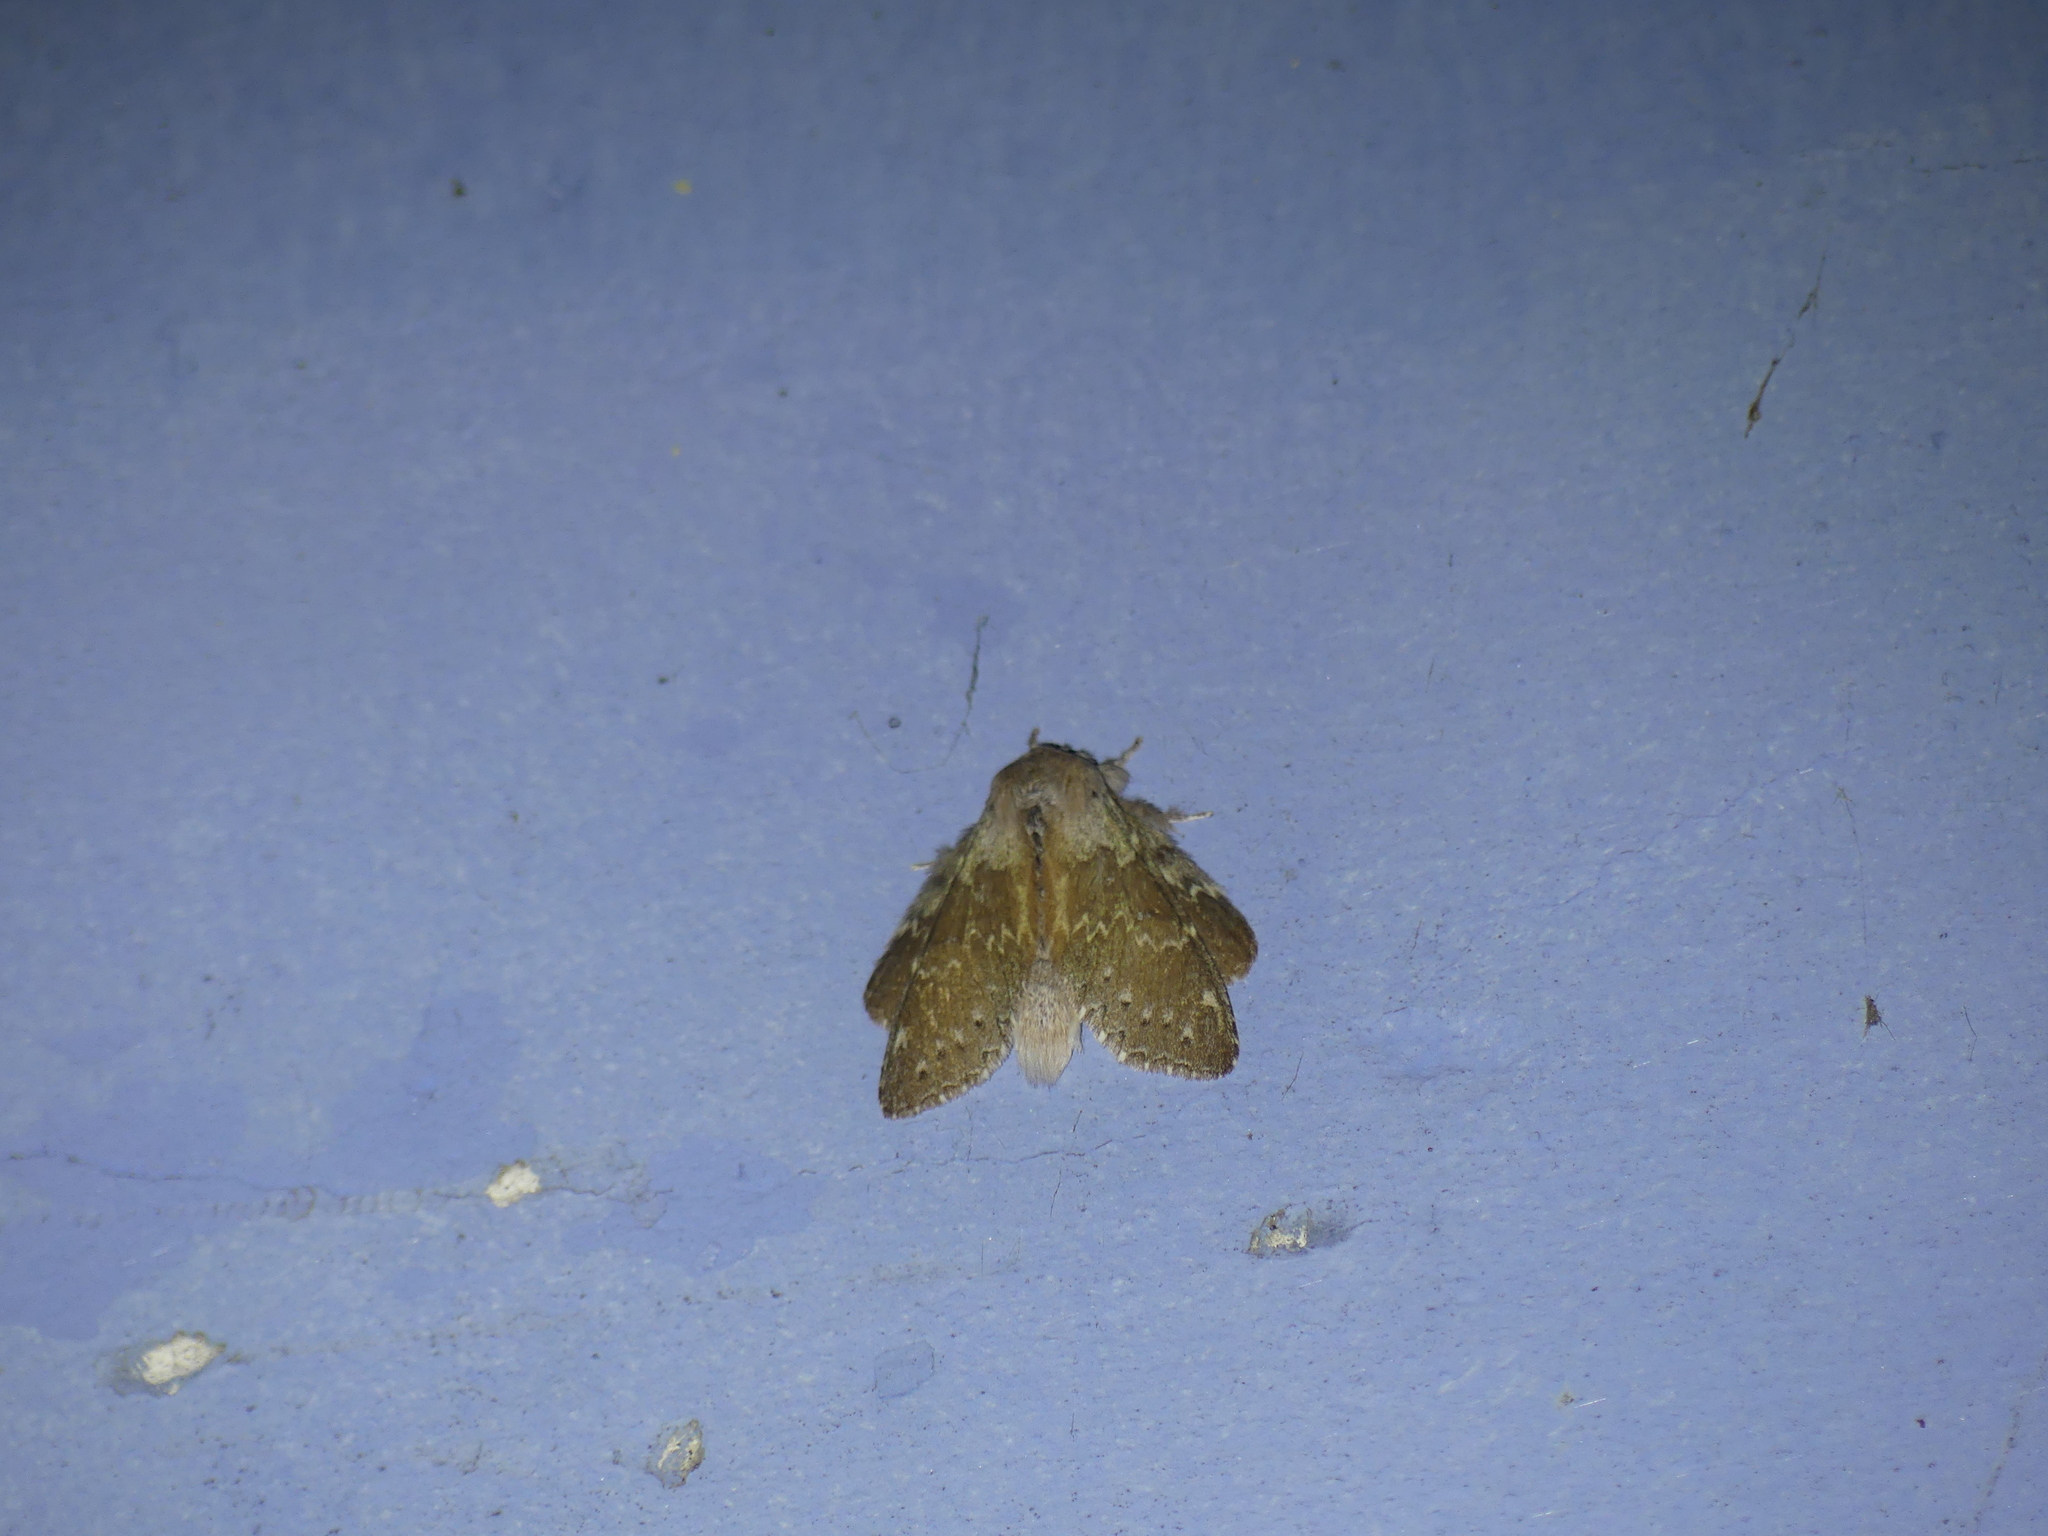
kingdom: Animalia
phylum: Arthropoda
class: Insecta
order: Lepidoptera
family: Notodontidae
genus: Stauropus
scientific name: Stauropus fagi
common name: Lobster moth
